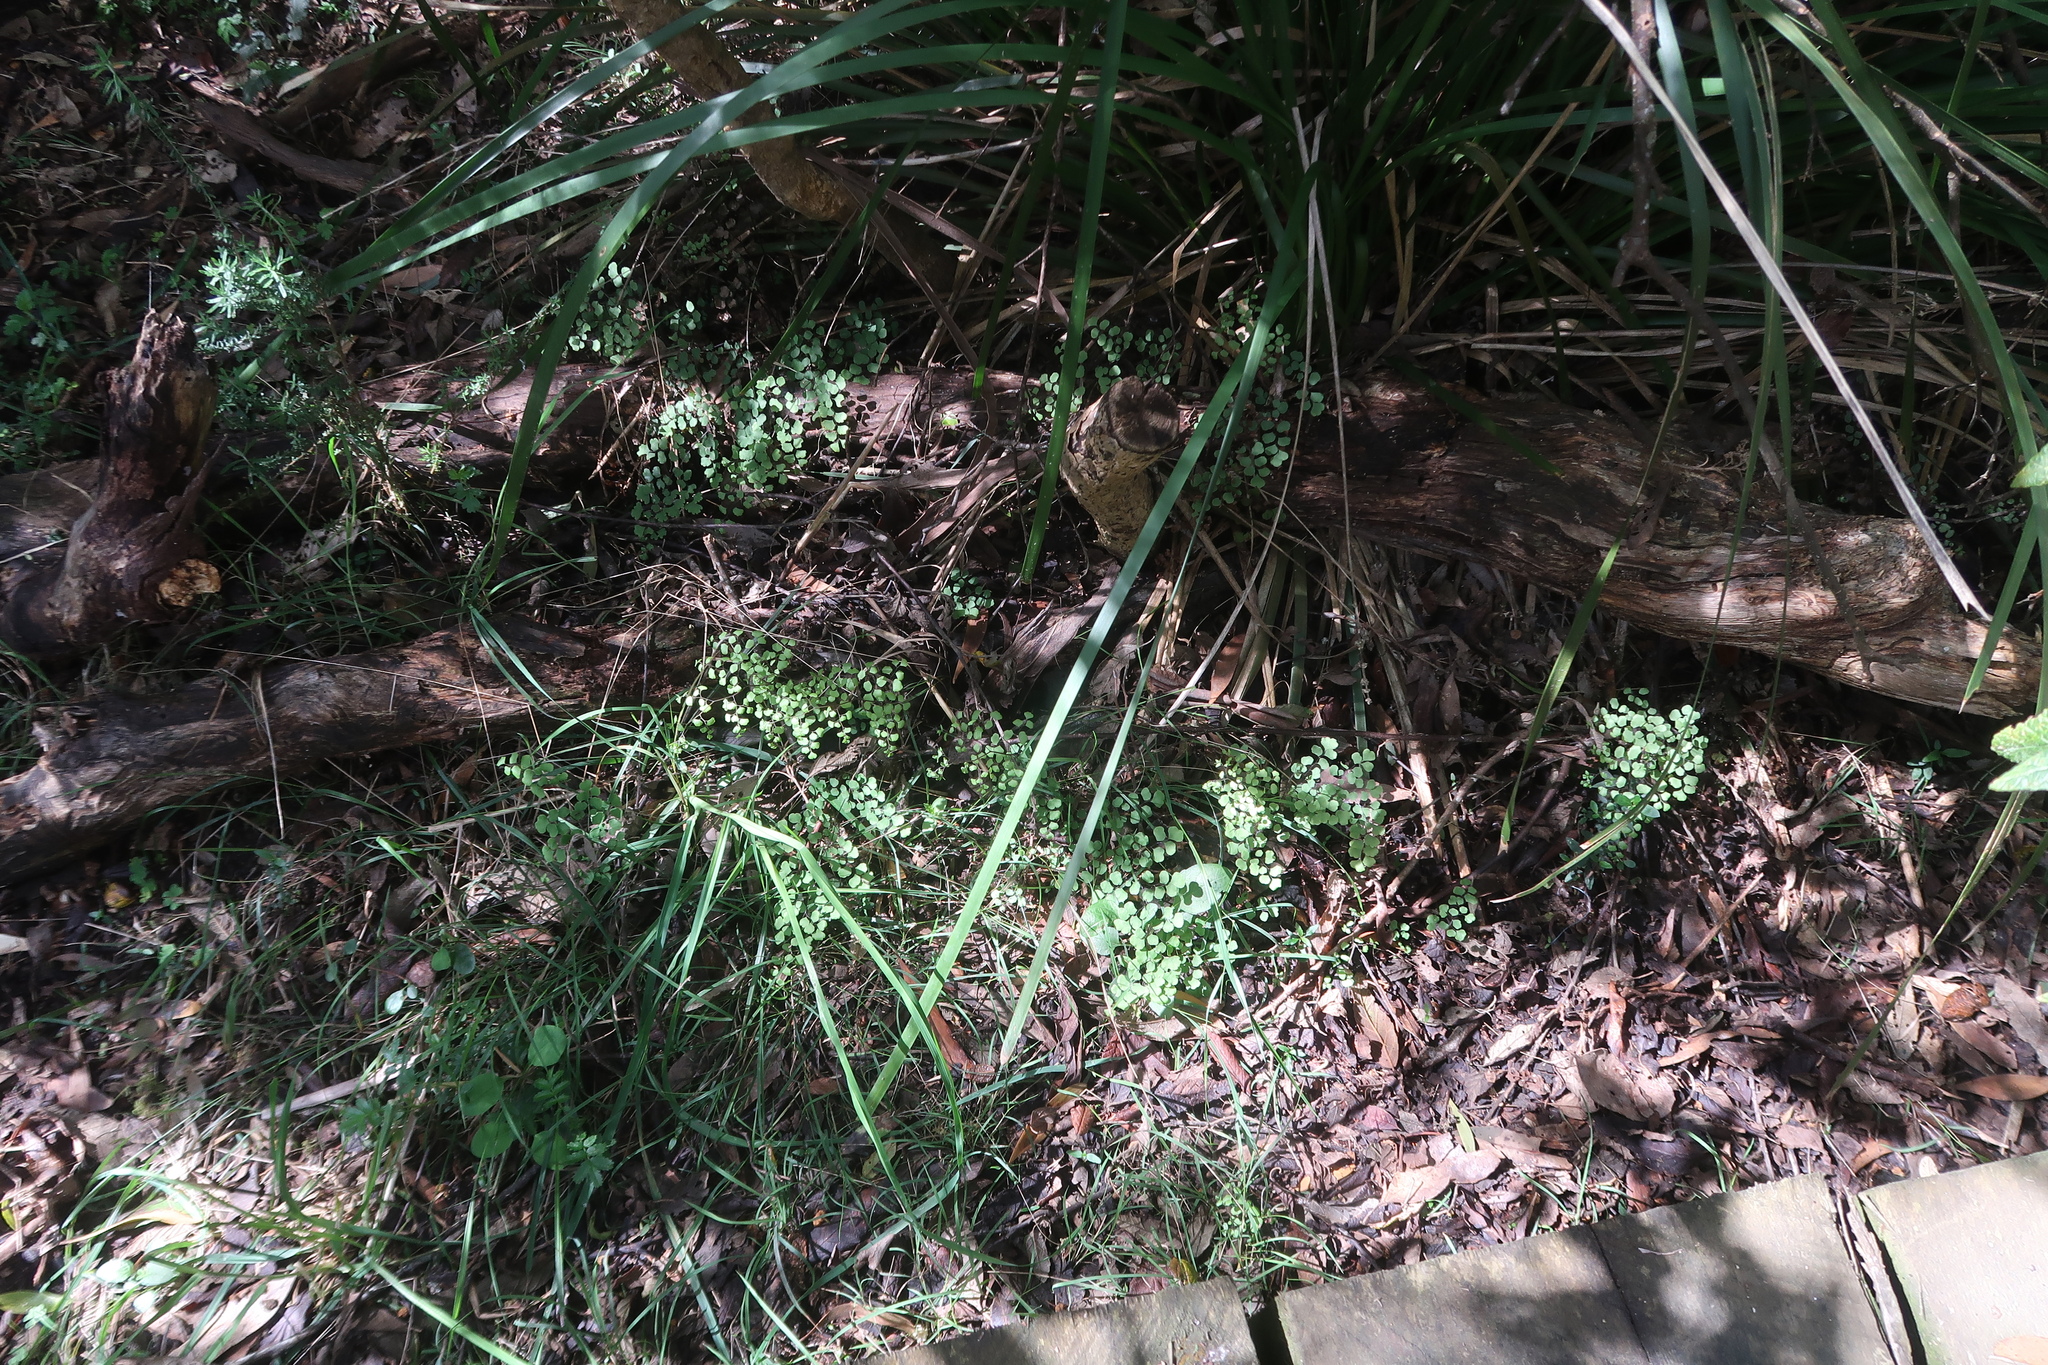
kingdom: Plantae
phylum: Tracheophyta
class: Polypodiopsida
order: Polypodiales
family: Pteridaceae
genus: Adiantum
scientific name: Adiantum aethiopicum
